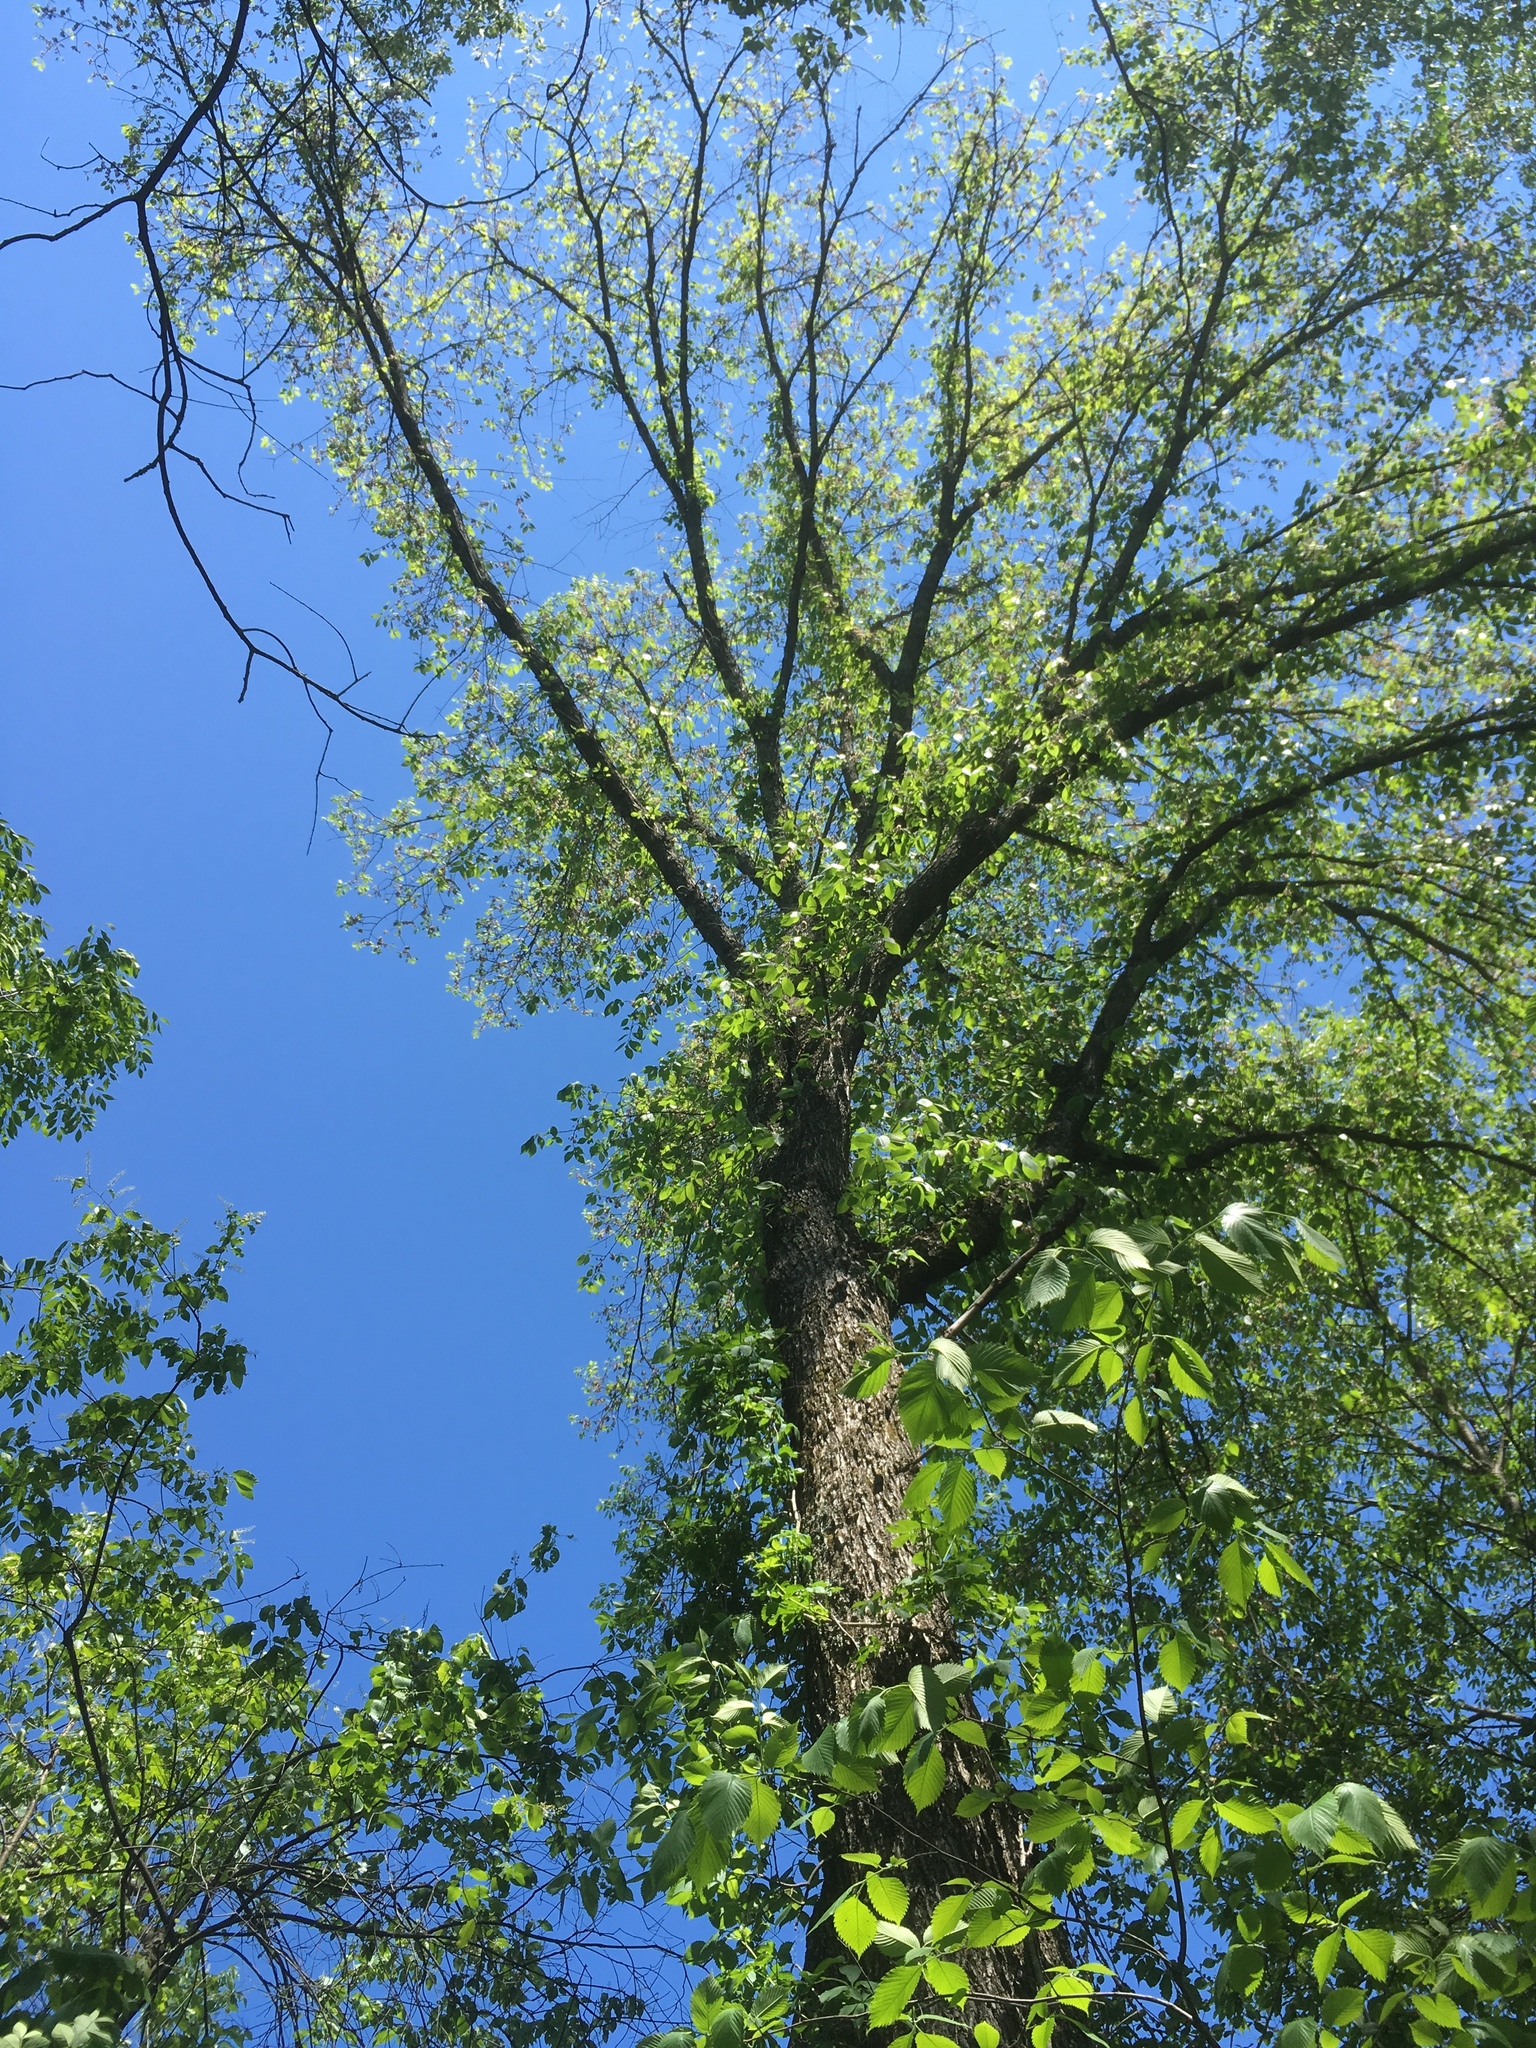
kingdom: Plantae
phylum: Tracheophyta
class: Magnoliopsida
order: Rosales
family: Ulmaceae
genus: Ulmus
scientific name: Ulmus americana
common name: American elm
